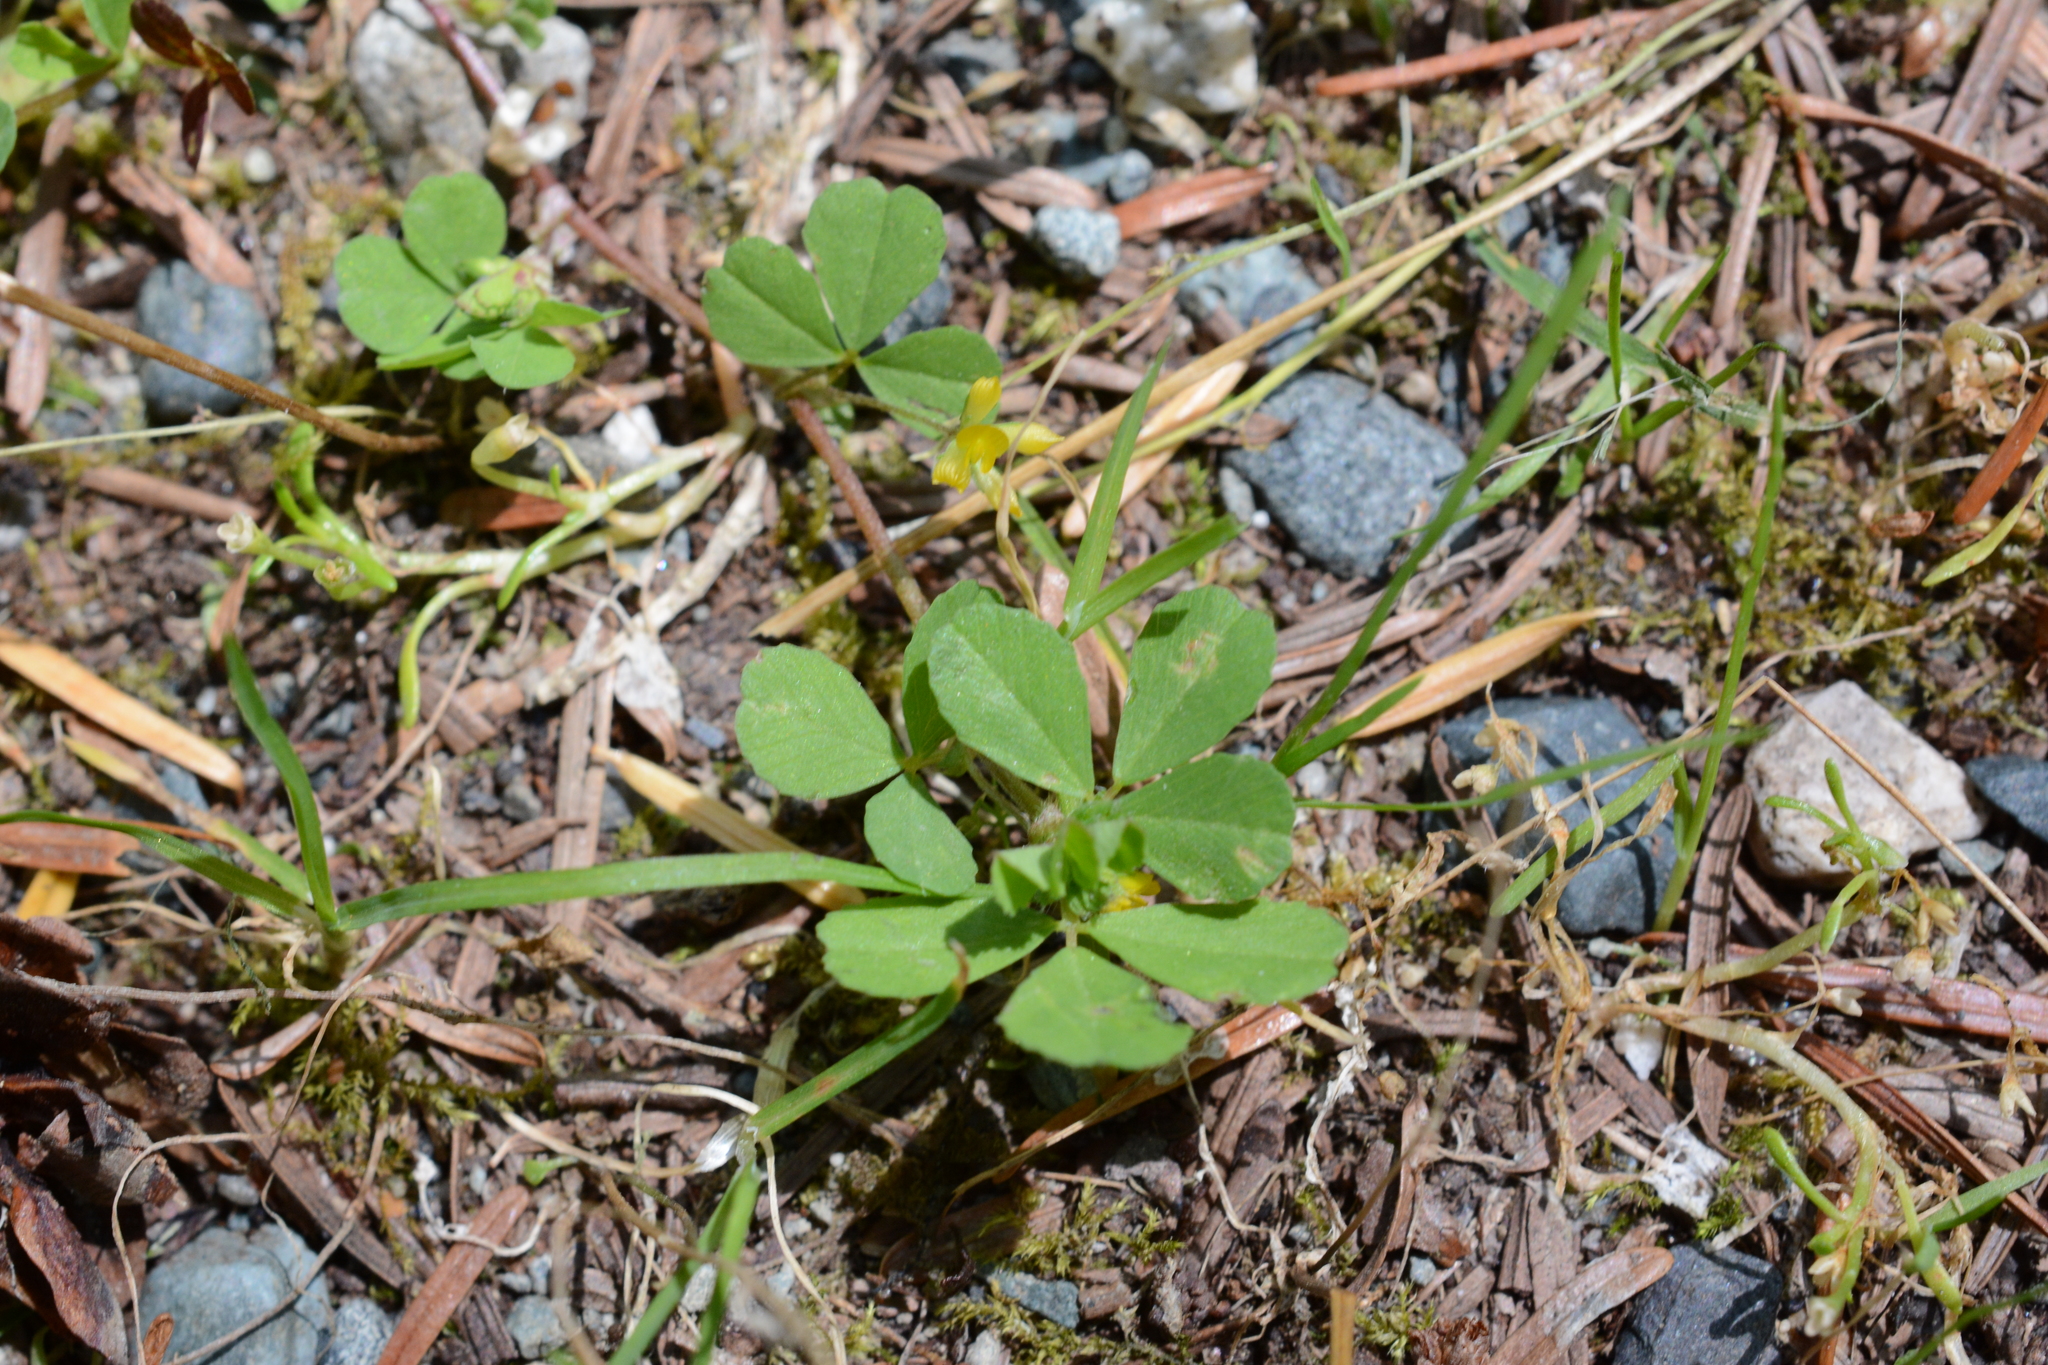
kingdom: Plantae
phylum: Tracheophyta
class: Magnoliopsida
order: Fabales
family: Fabaceae
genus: Trifolium
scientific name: Trifolium dubium
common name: Suckling clover
